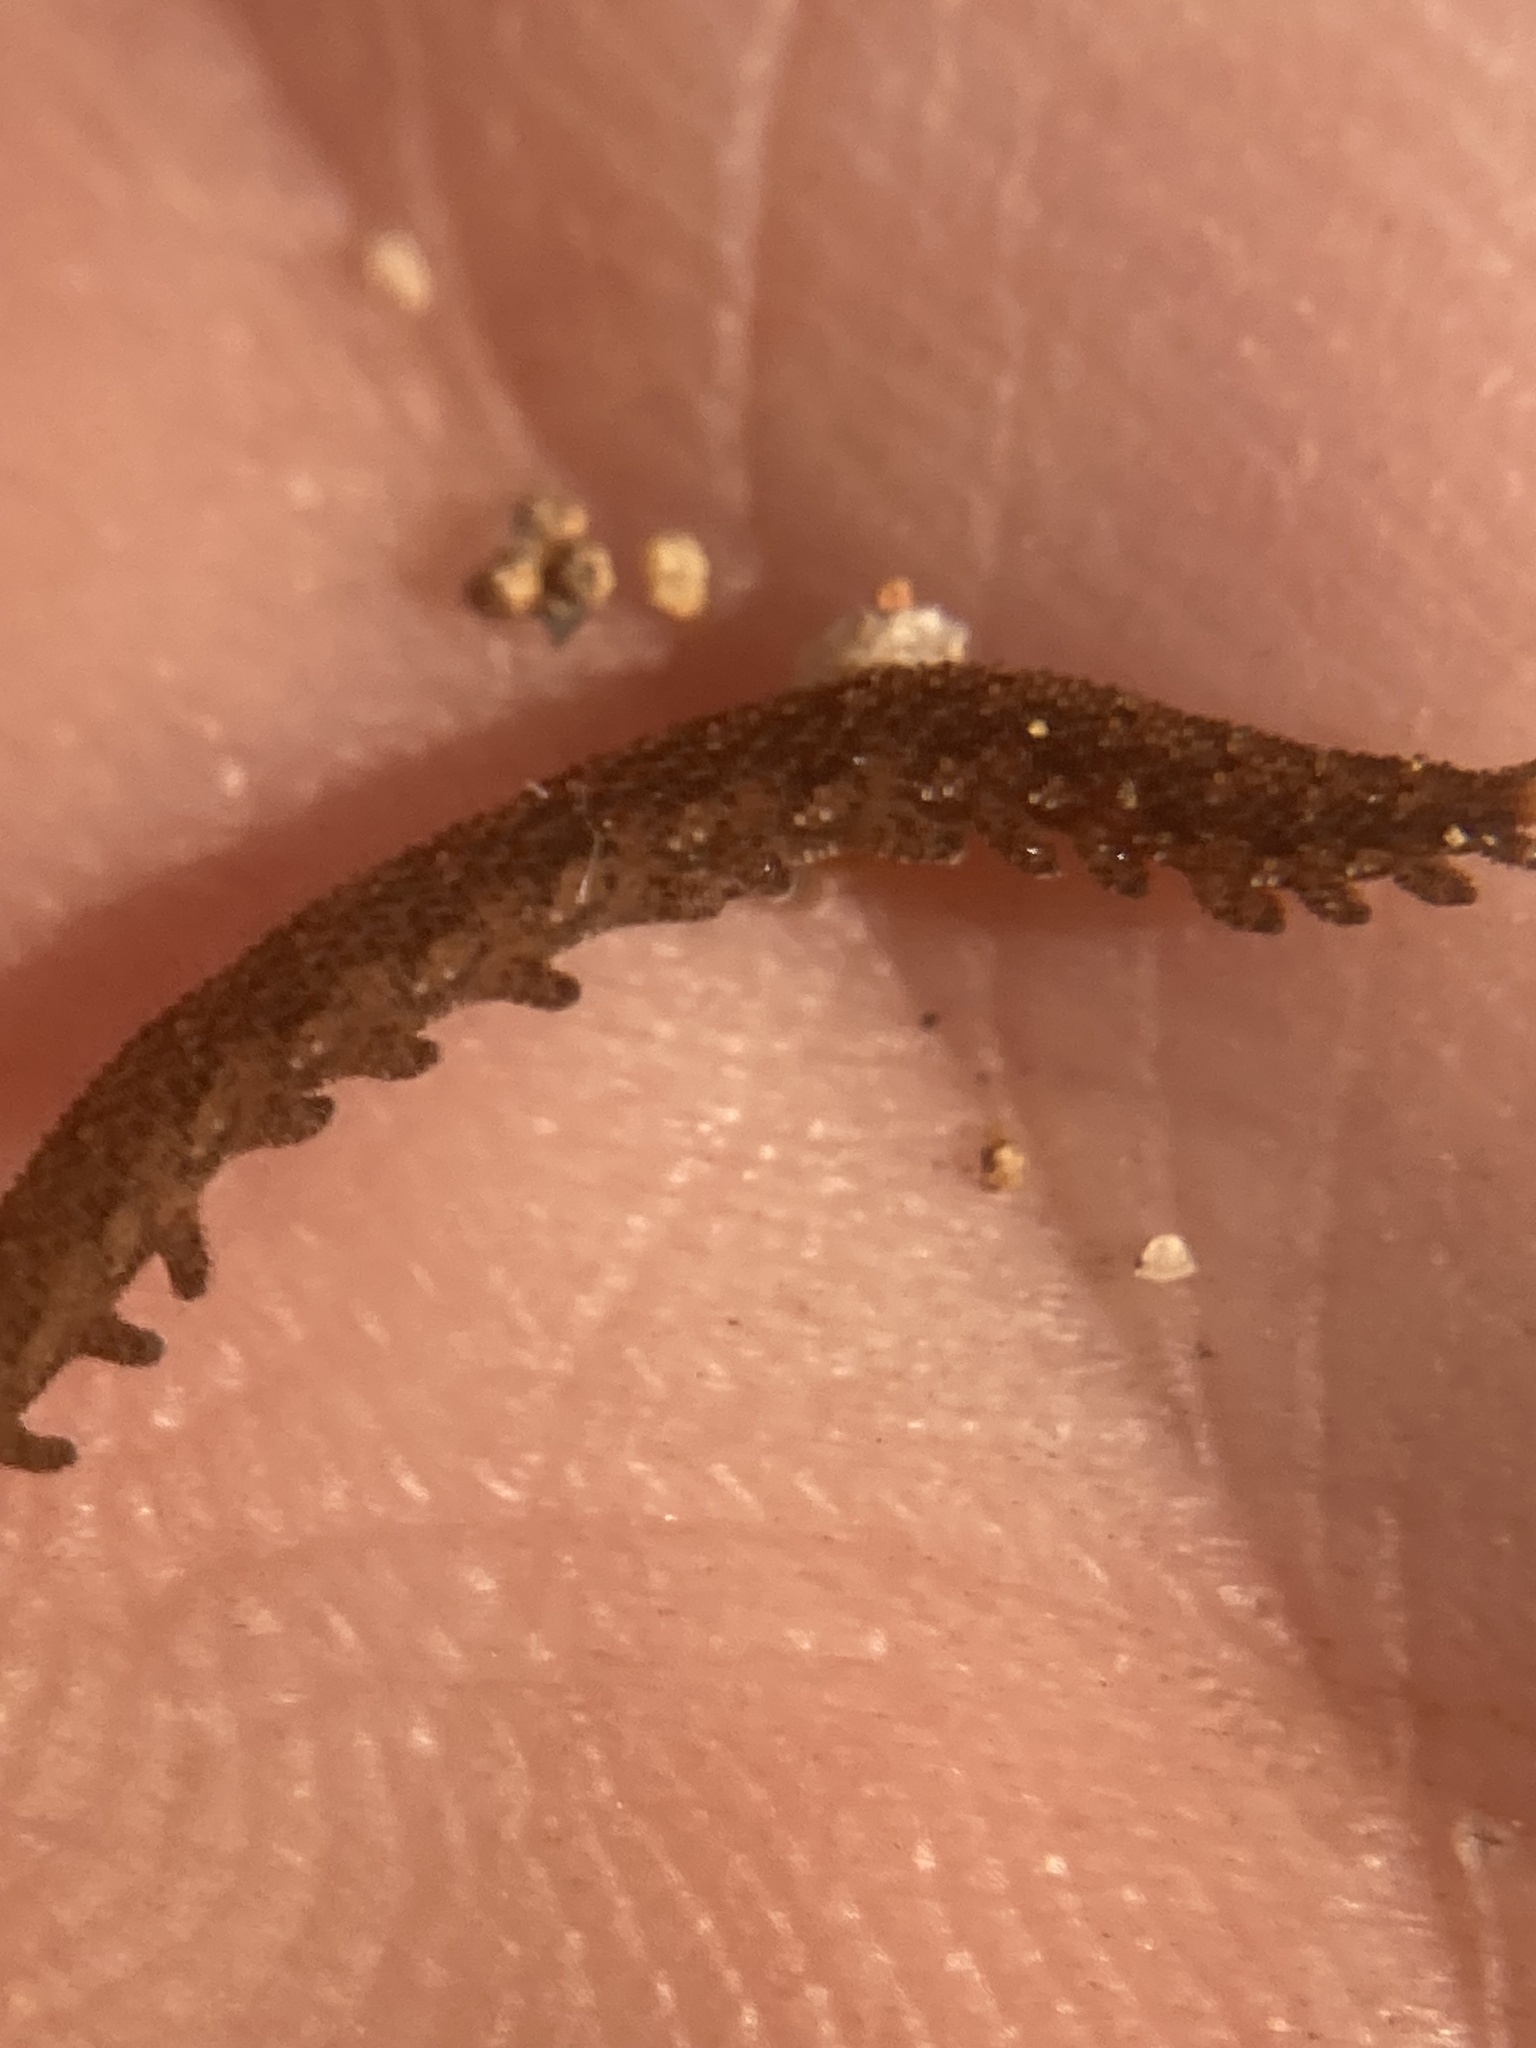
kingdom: Animalia
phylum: Onychophora
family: Peripatopsidae
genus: Anoplokaros
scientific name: Anoplokaros keerensis
